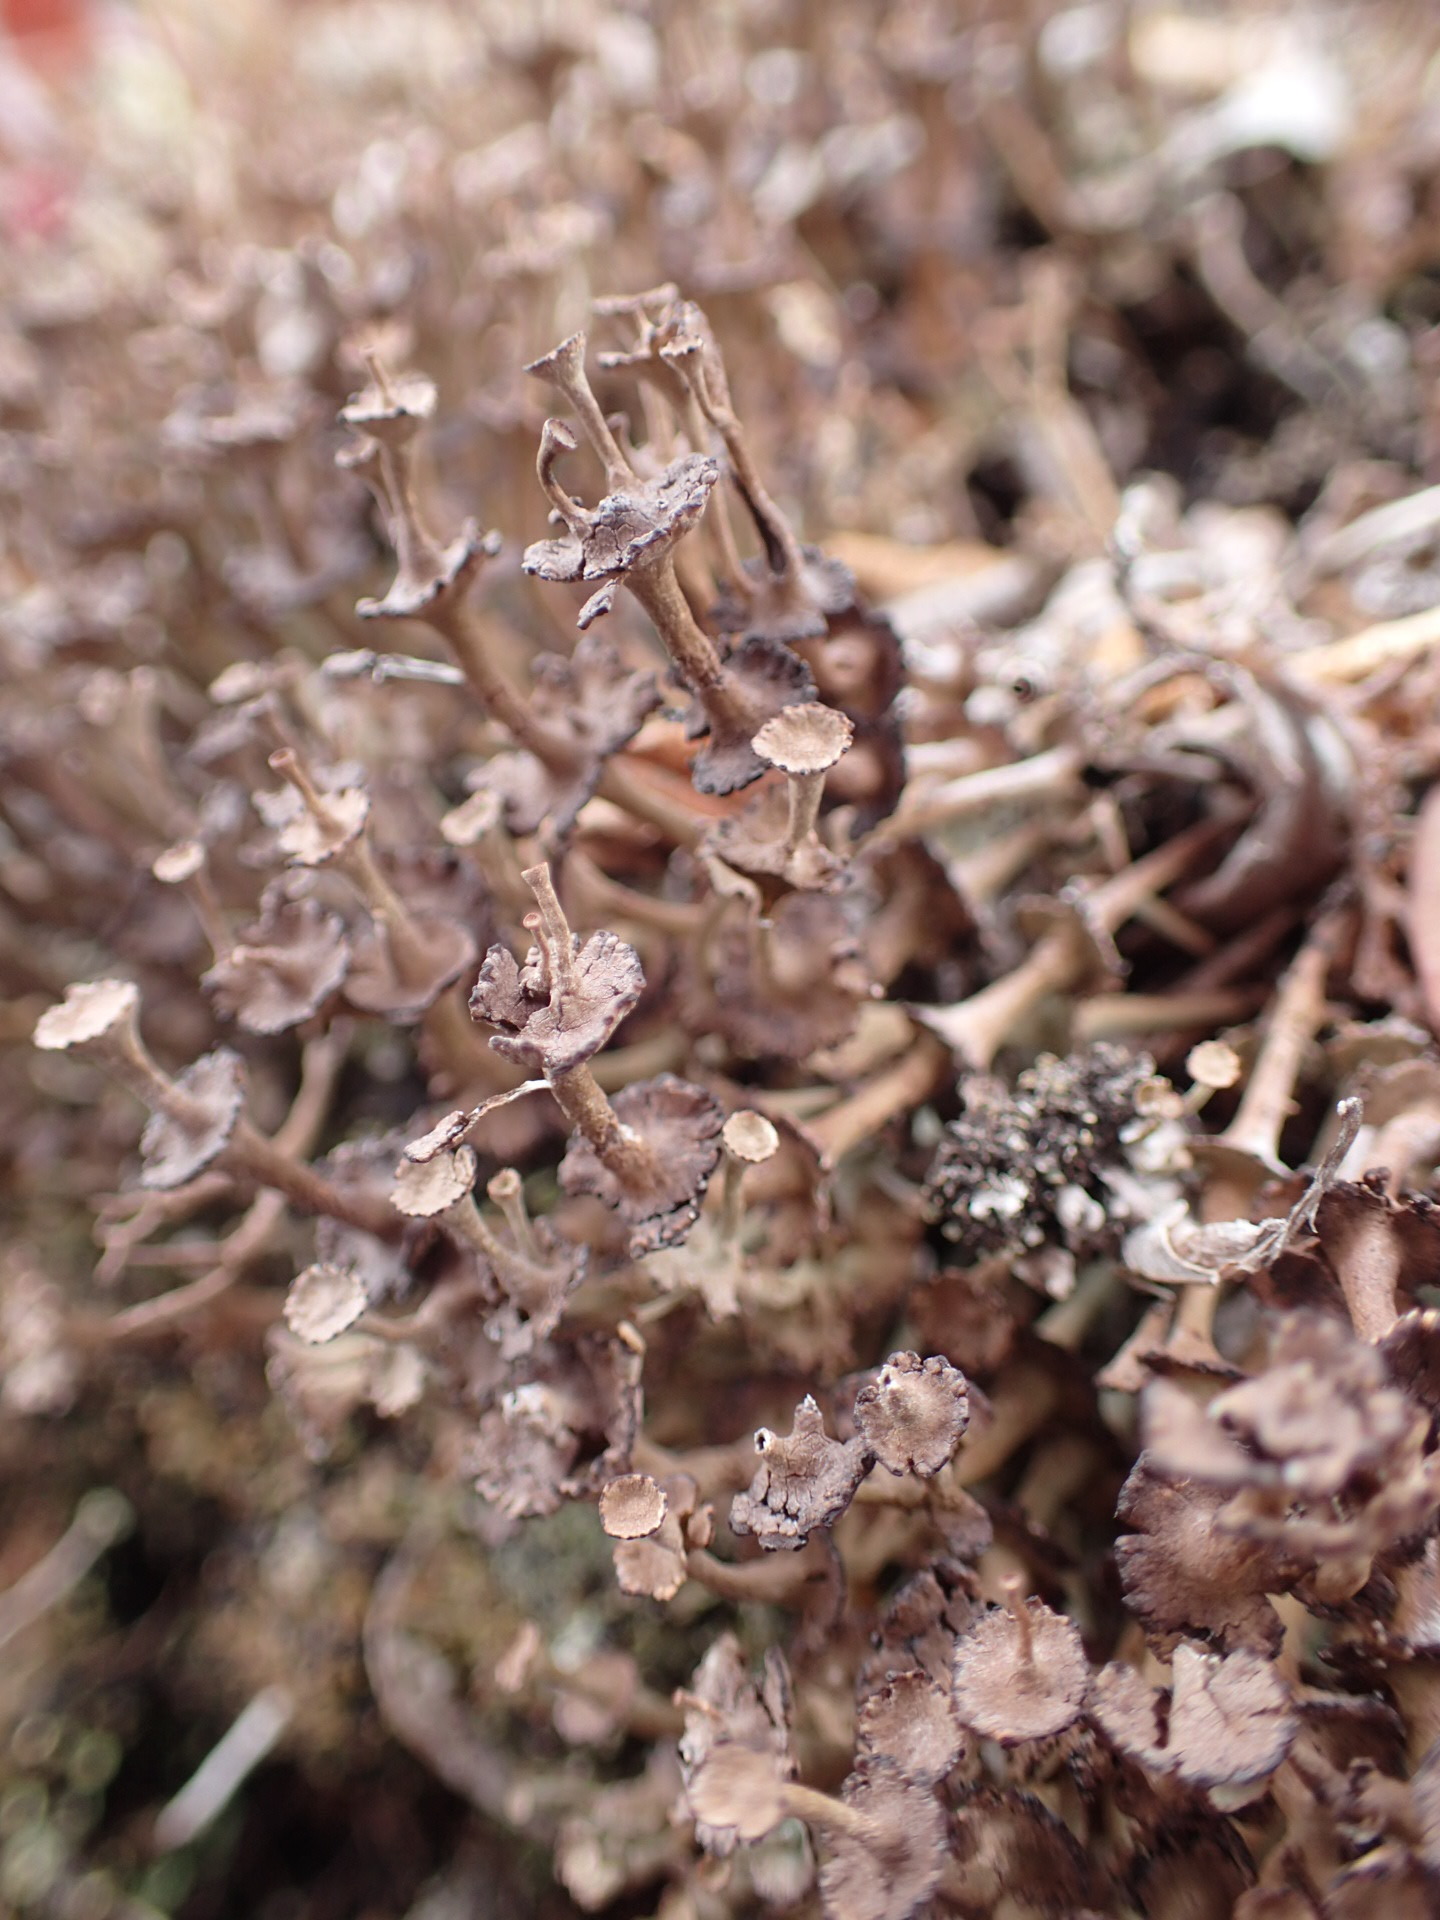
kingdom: Fungi
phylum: Ascomycota
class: Lecanoromycetes
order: Lecanorales
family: Cladoniaceae
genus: Cladonia
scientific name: Cladonia cervicornis
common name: Browned pixie-cup lichen
